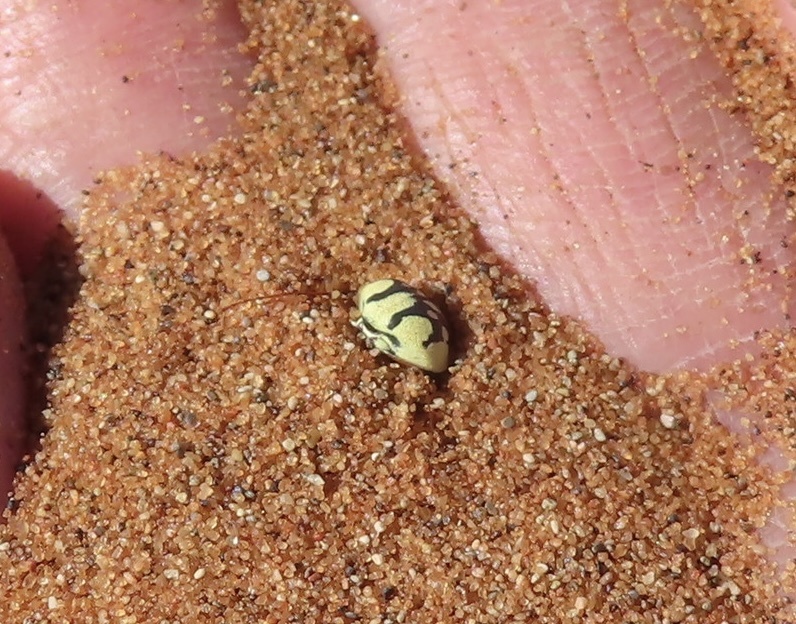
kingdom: Animalia
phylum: Arthropoda
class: Insecta
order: Coleoptera
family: Tenebrionidae
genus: Zophosis
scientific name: Zophosis
